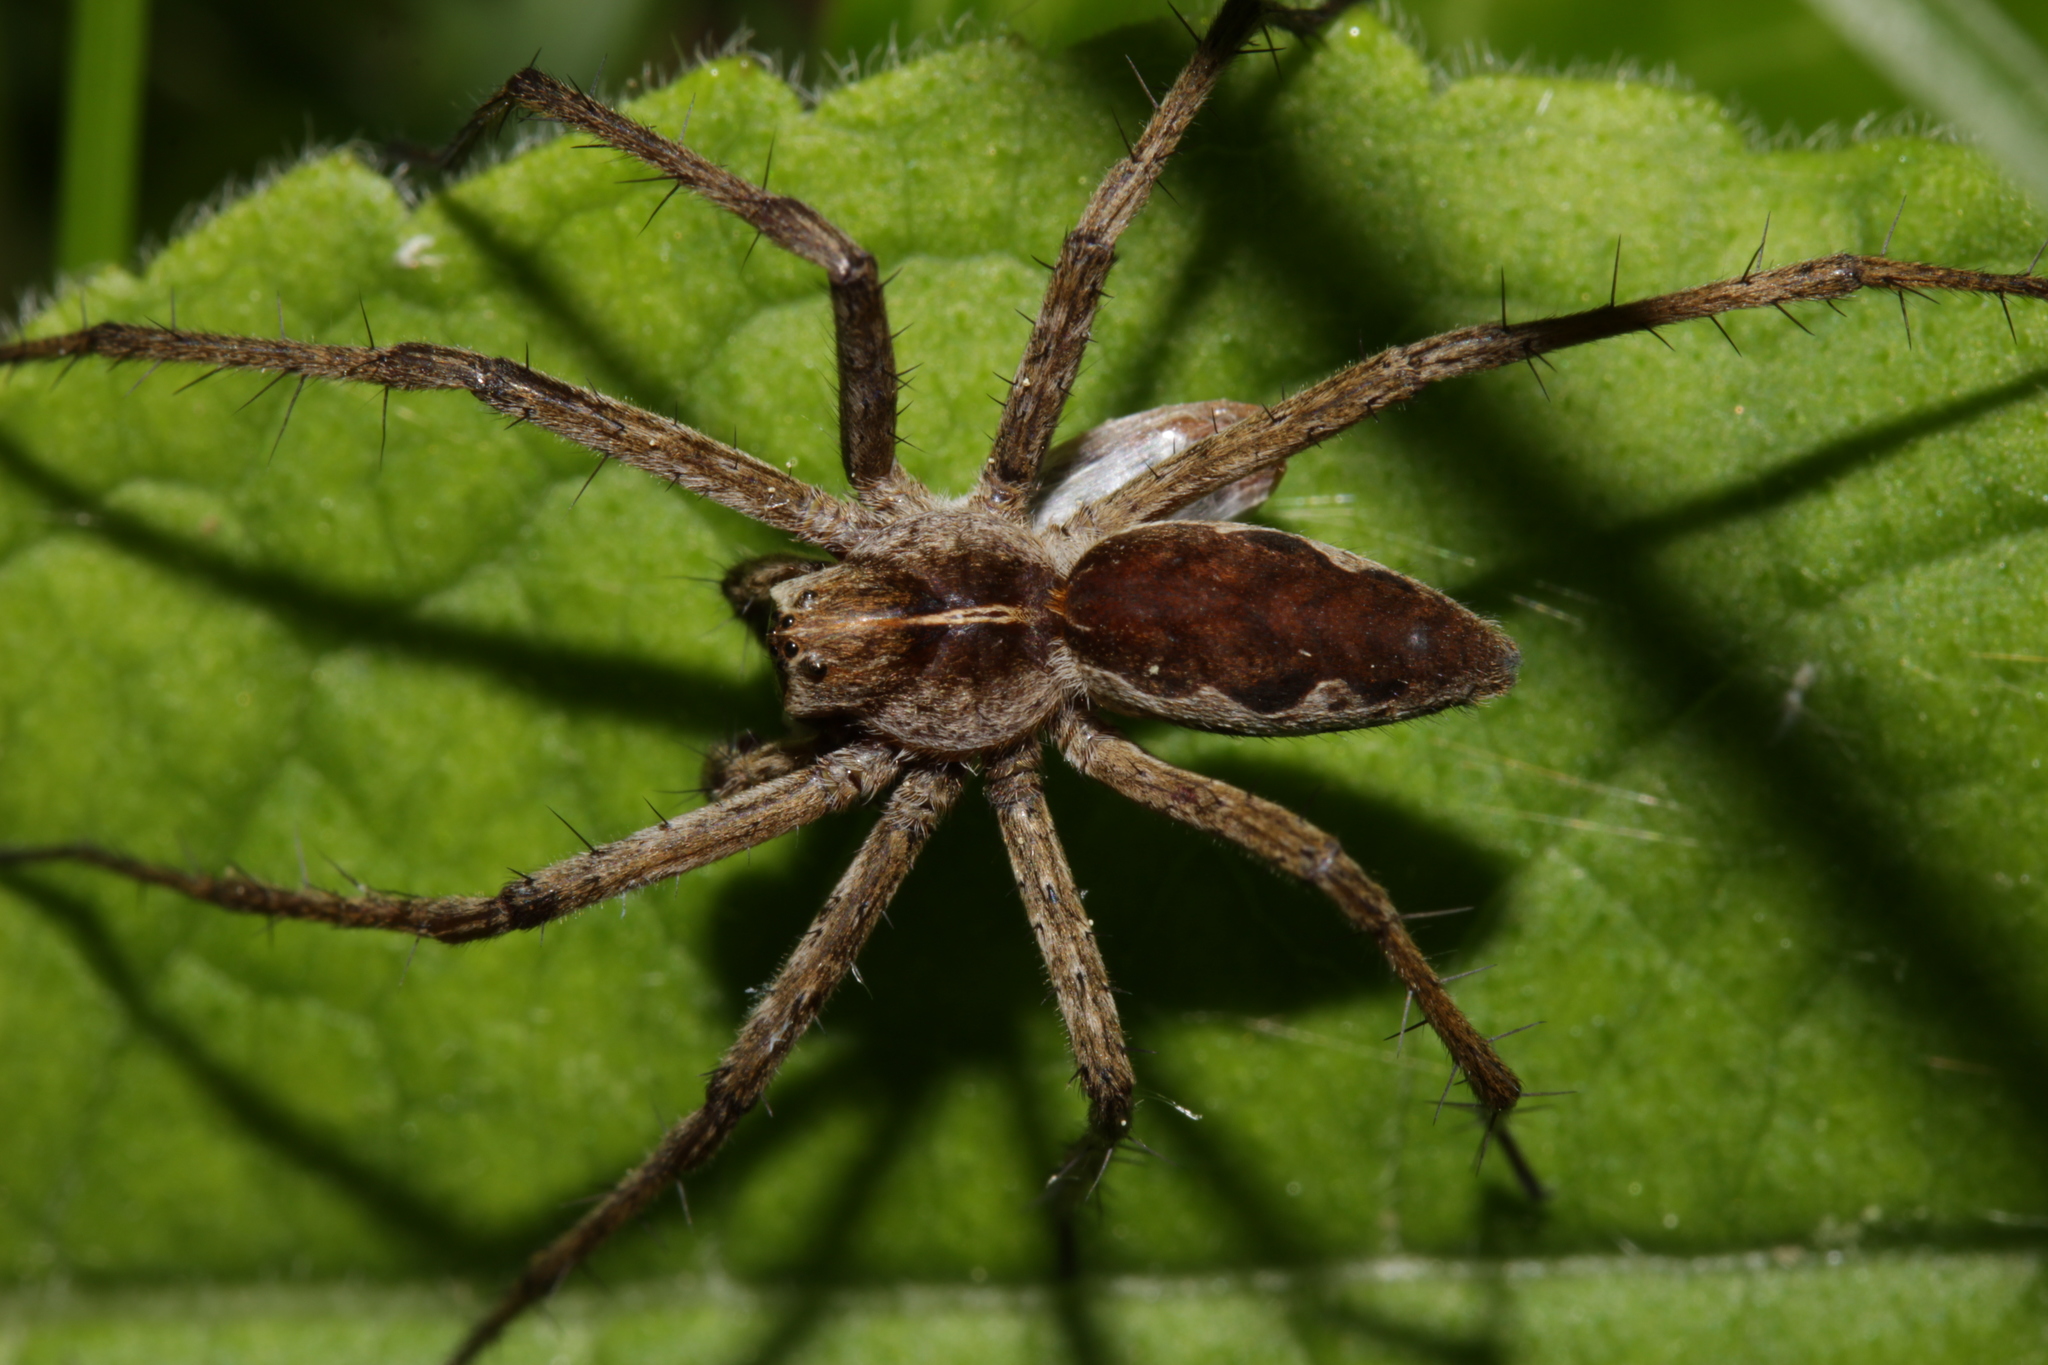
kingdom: Animalia
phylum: Arthropoda
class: Arachnida
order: Araneae
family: Pisauridae
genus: Pisaura
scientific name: Pisaura mirabilis
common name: Tent spider
